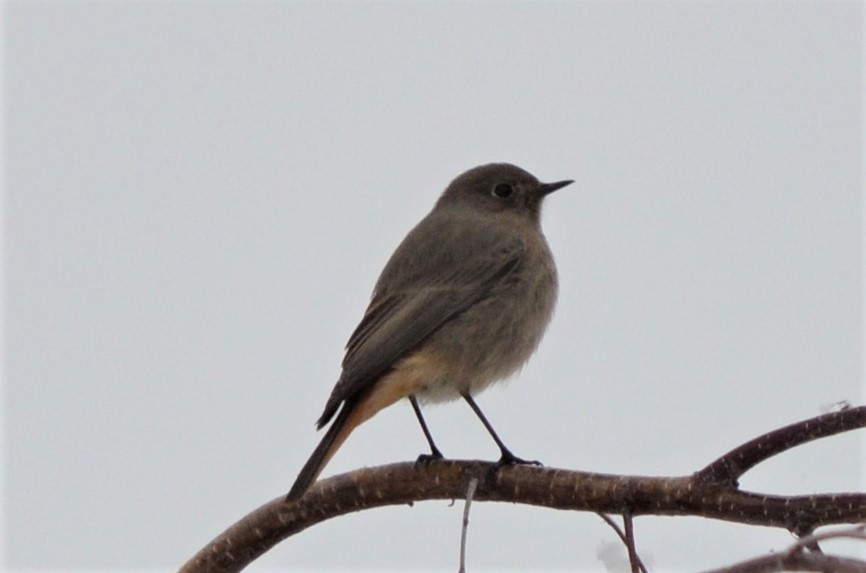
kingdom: Animalia
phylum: Chordata
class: Aves
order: Passeriformes
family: Muscicapidae
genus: Phoenicurus
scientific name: Phoenicurus ochruros
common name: Black redstart
